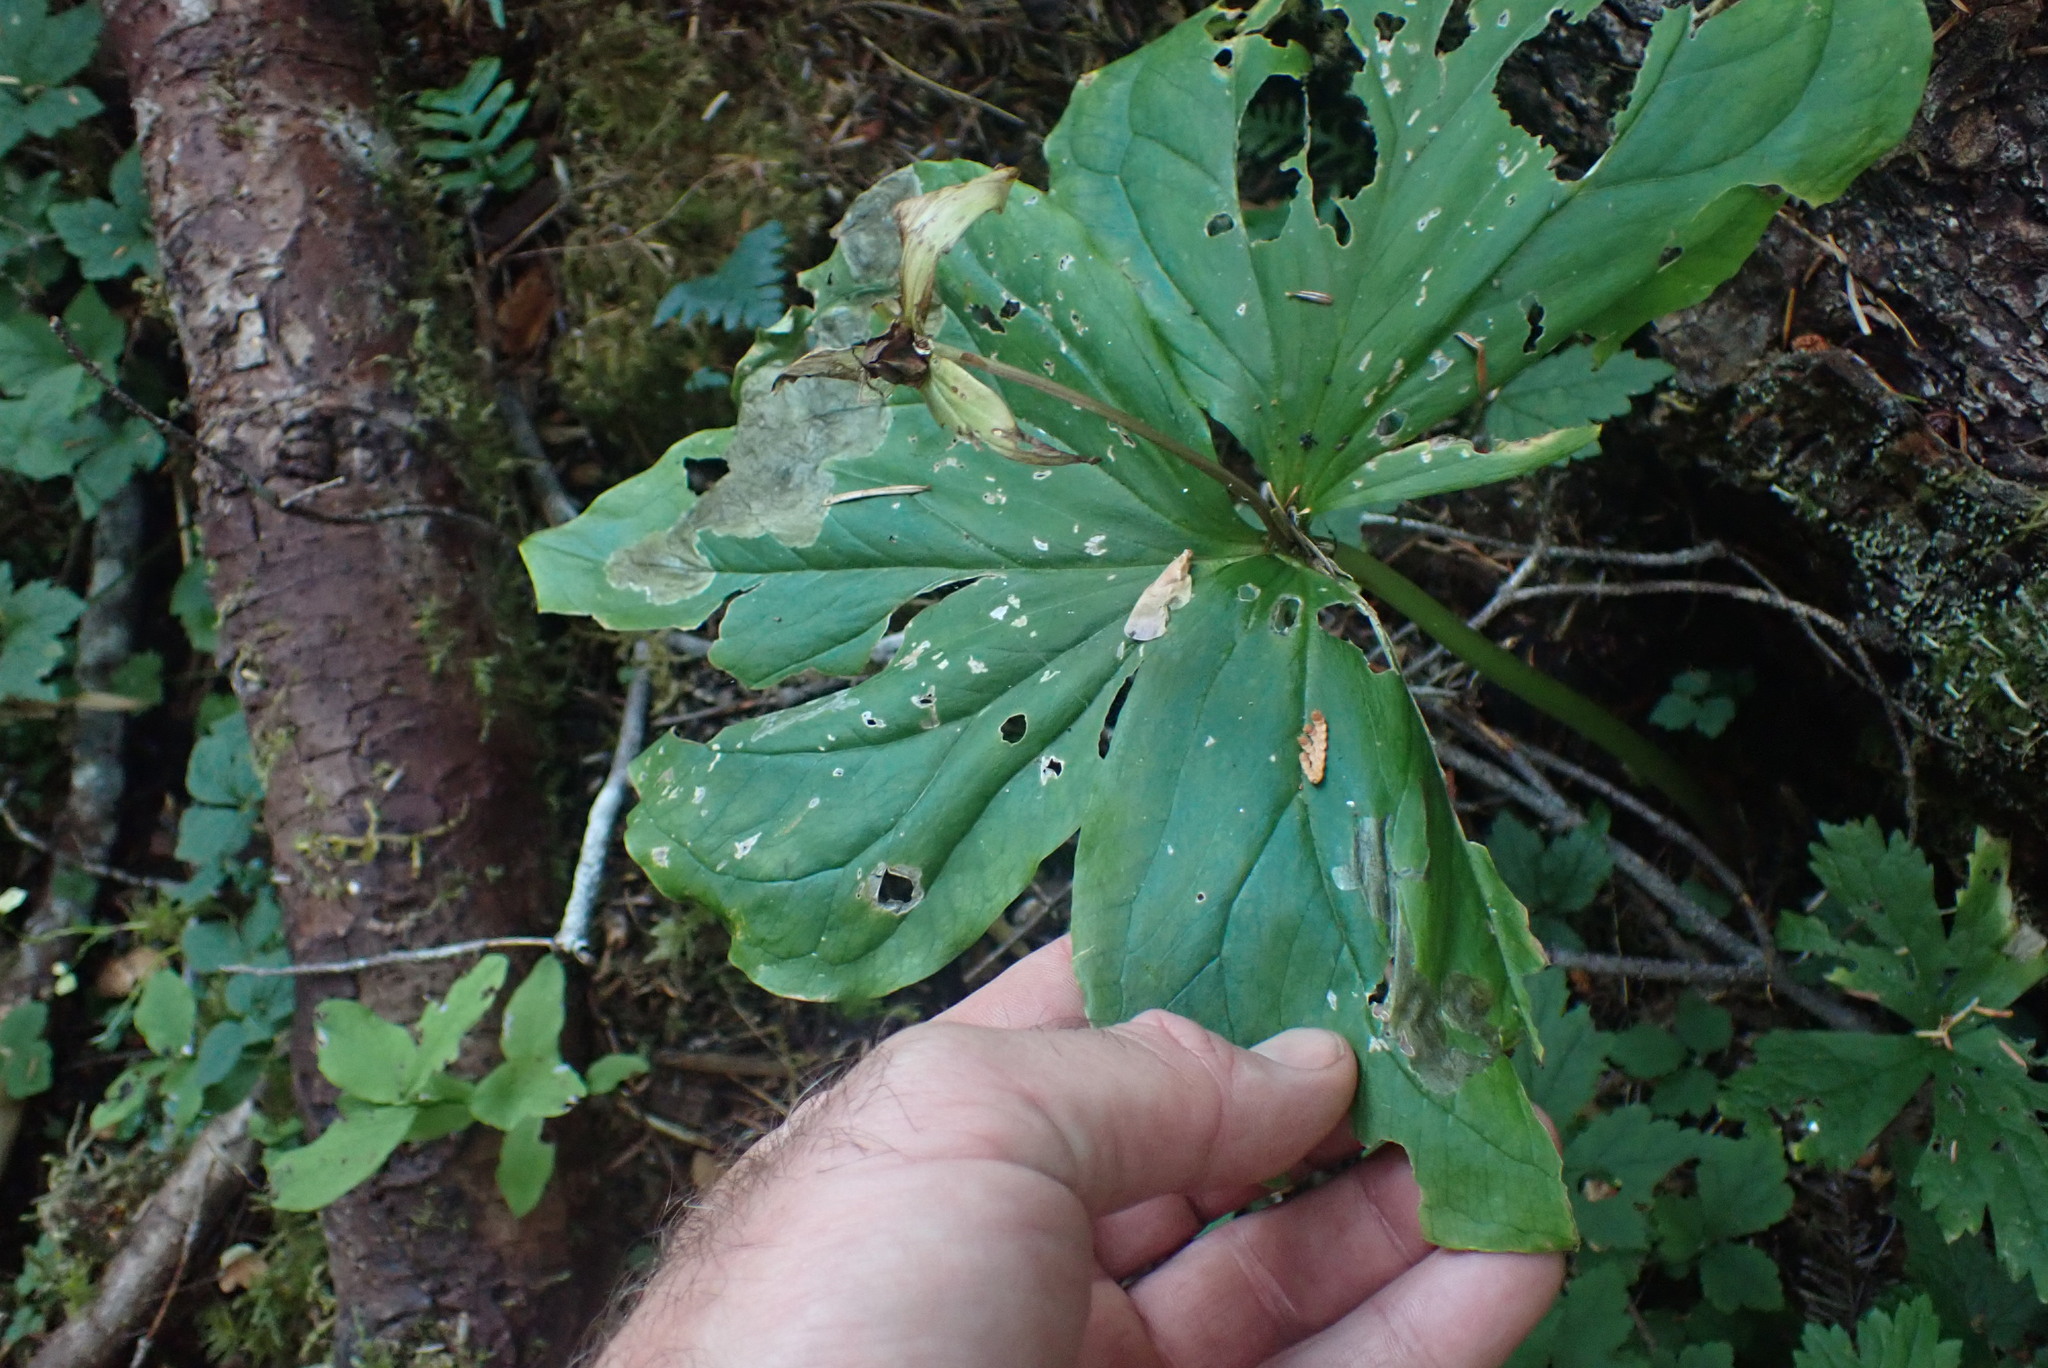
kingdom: Plantae
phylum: Tracheophyta
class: Liliopsida
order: Liliales
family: Melanthiaceae
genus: Trillium
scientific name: Trillium ovatum
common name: Pacific trillium
